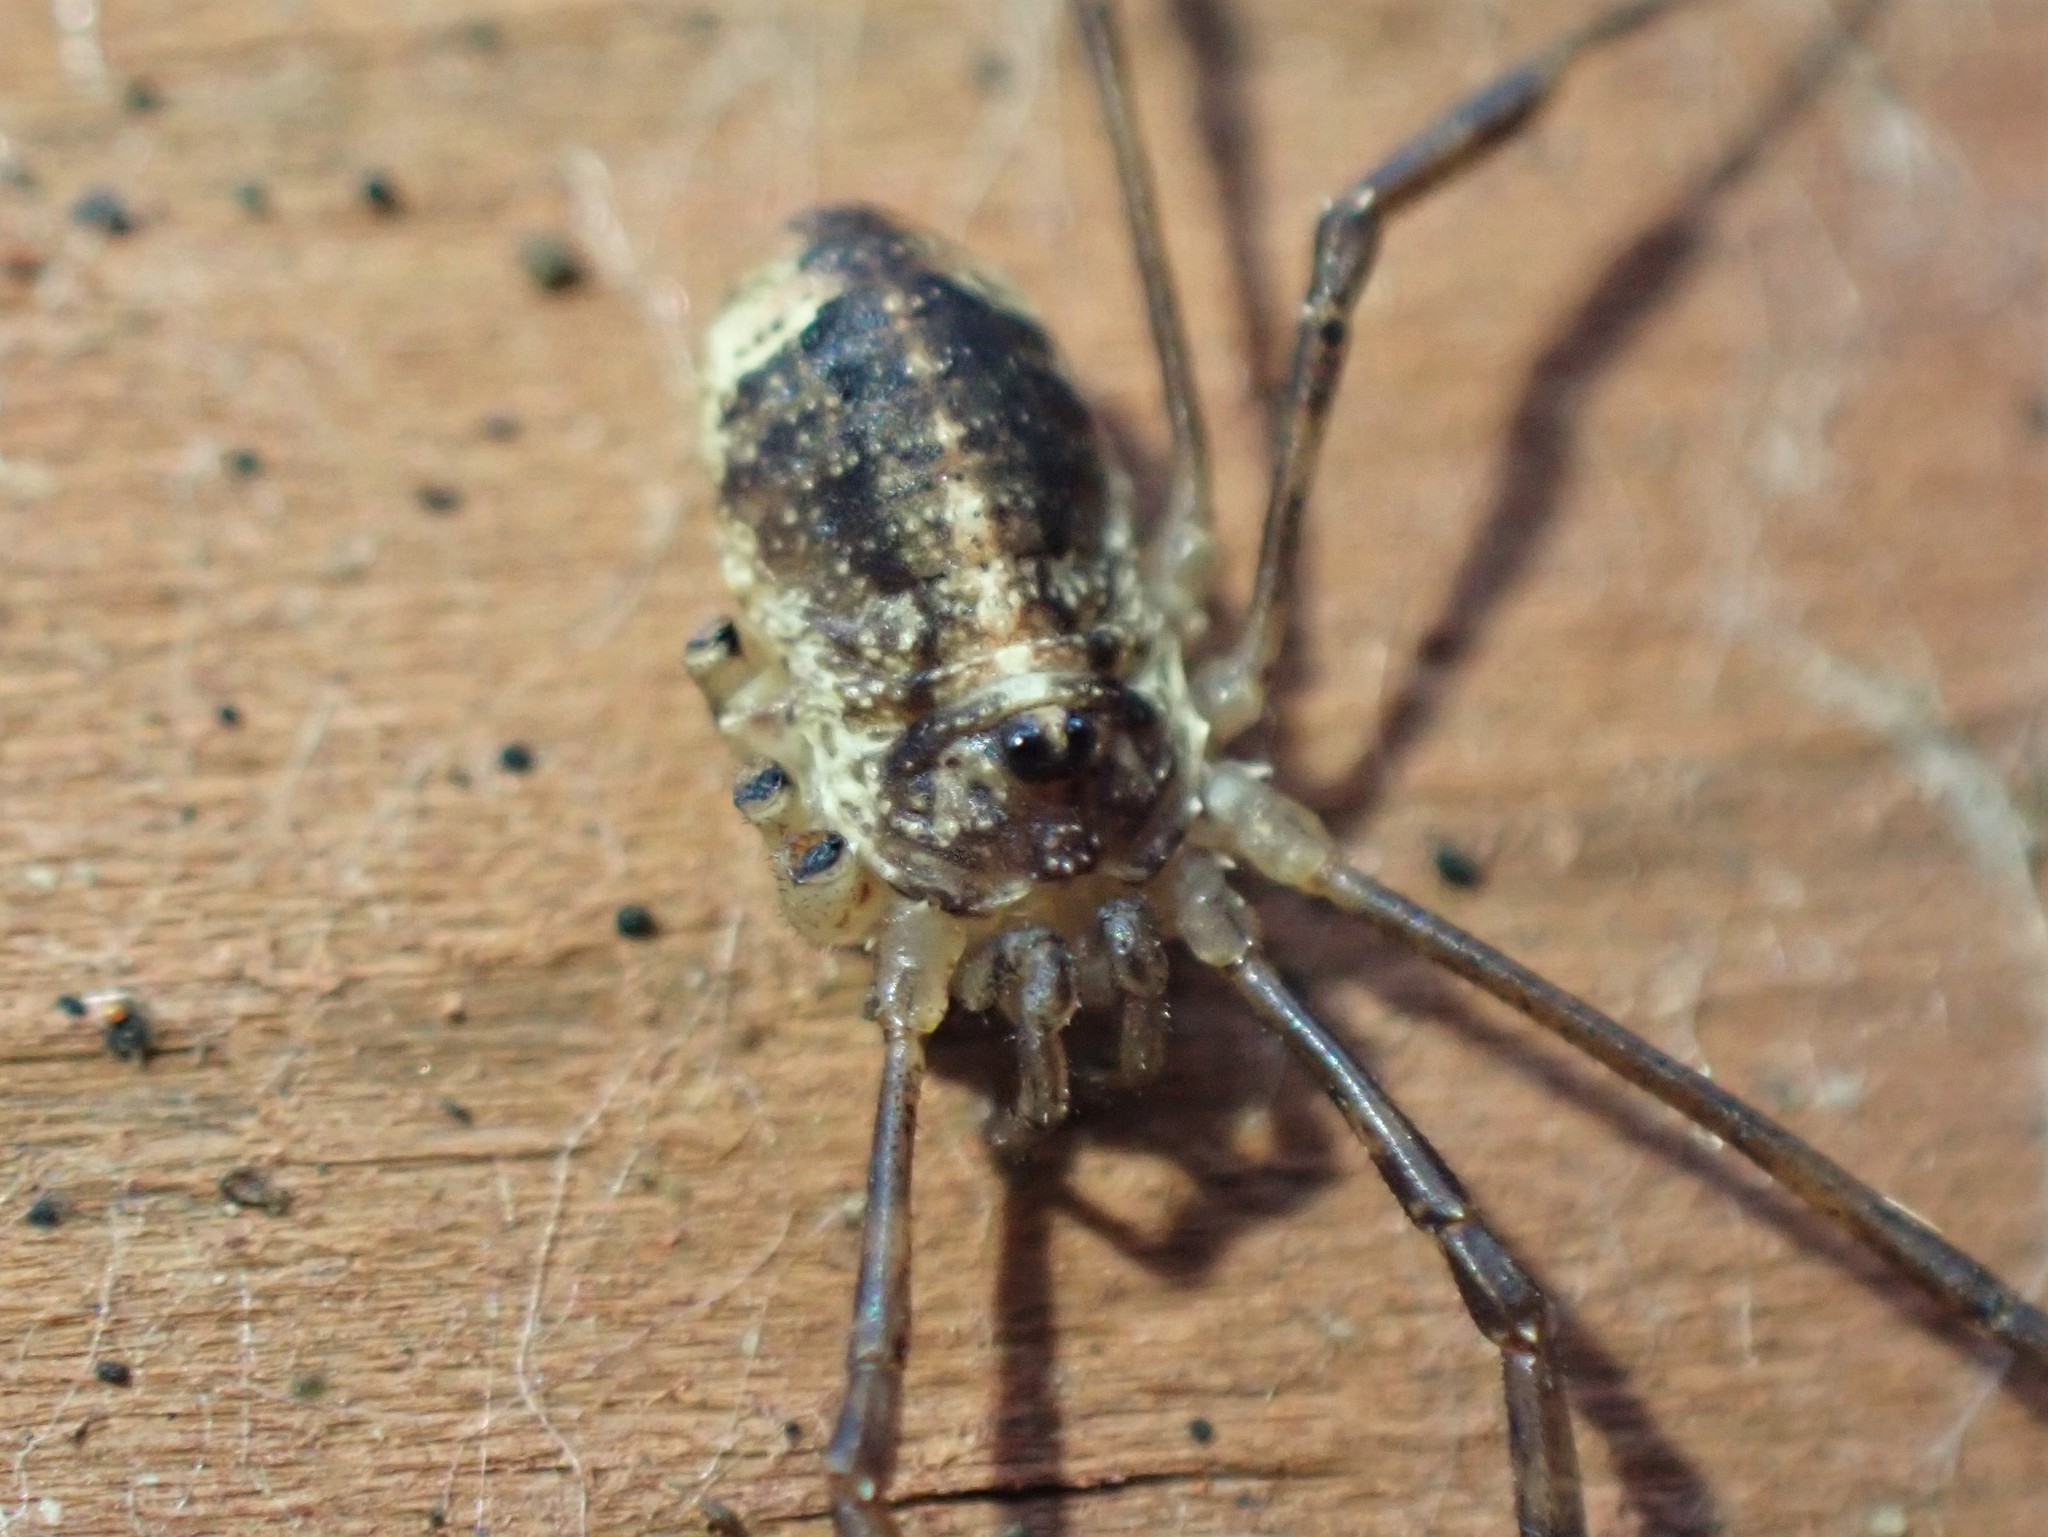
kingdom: Animalia
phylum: Arthropoda
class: Arachnida
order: Opiliones
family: Phalangiidae
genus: Paroligolophus
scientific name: Paroligolophus agrestis
